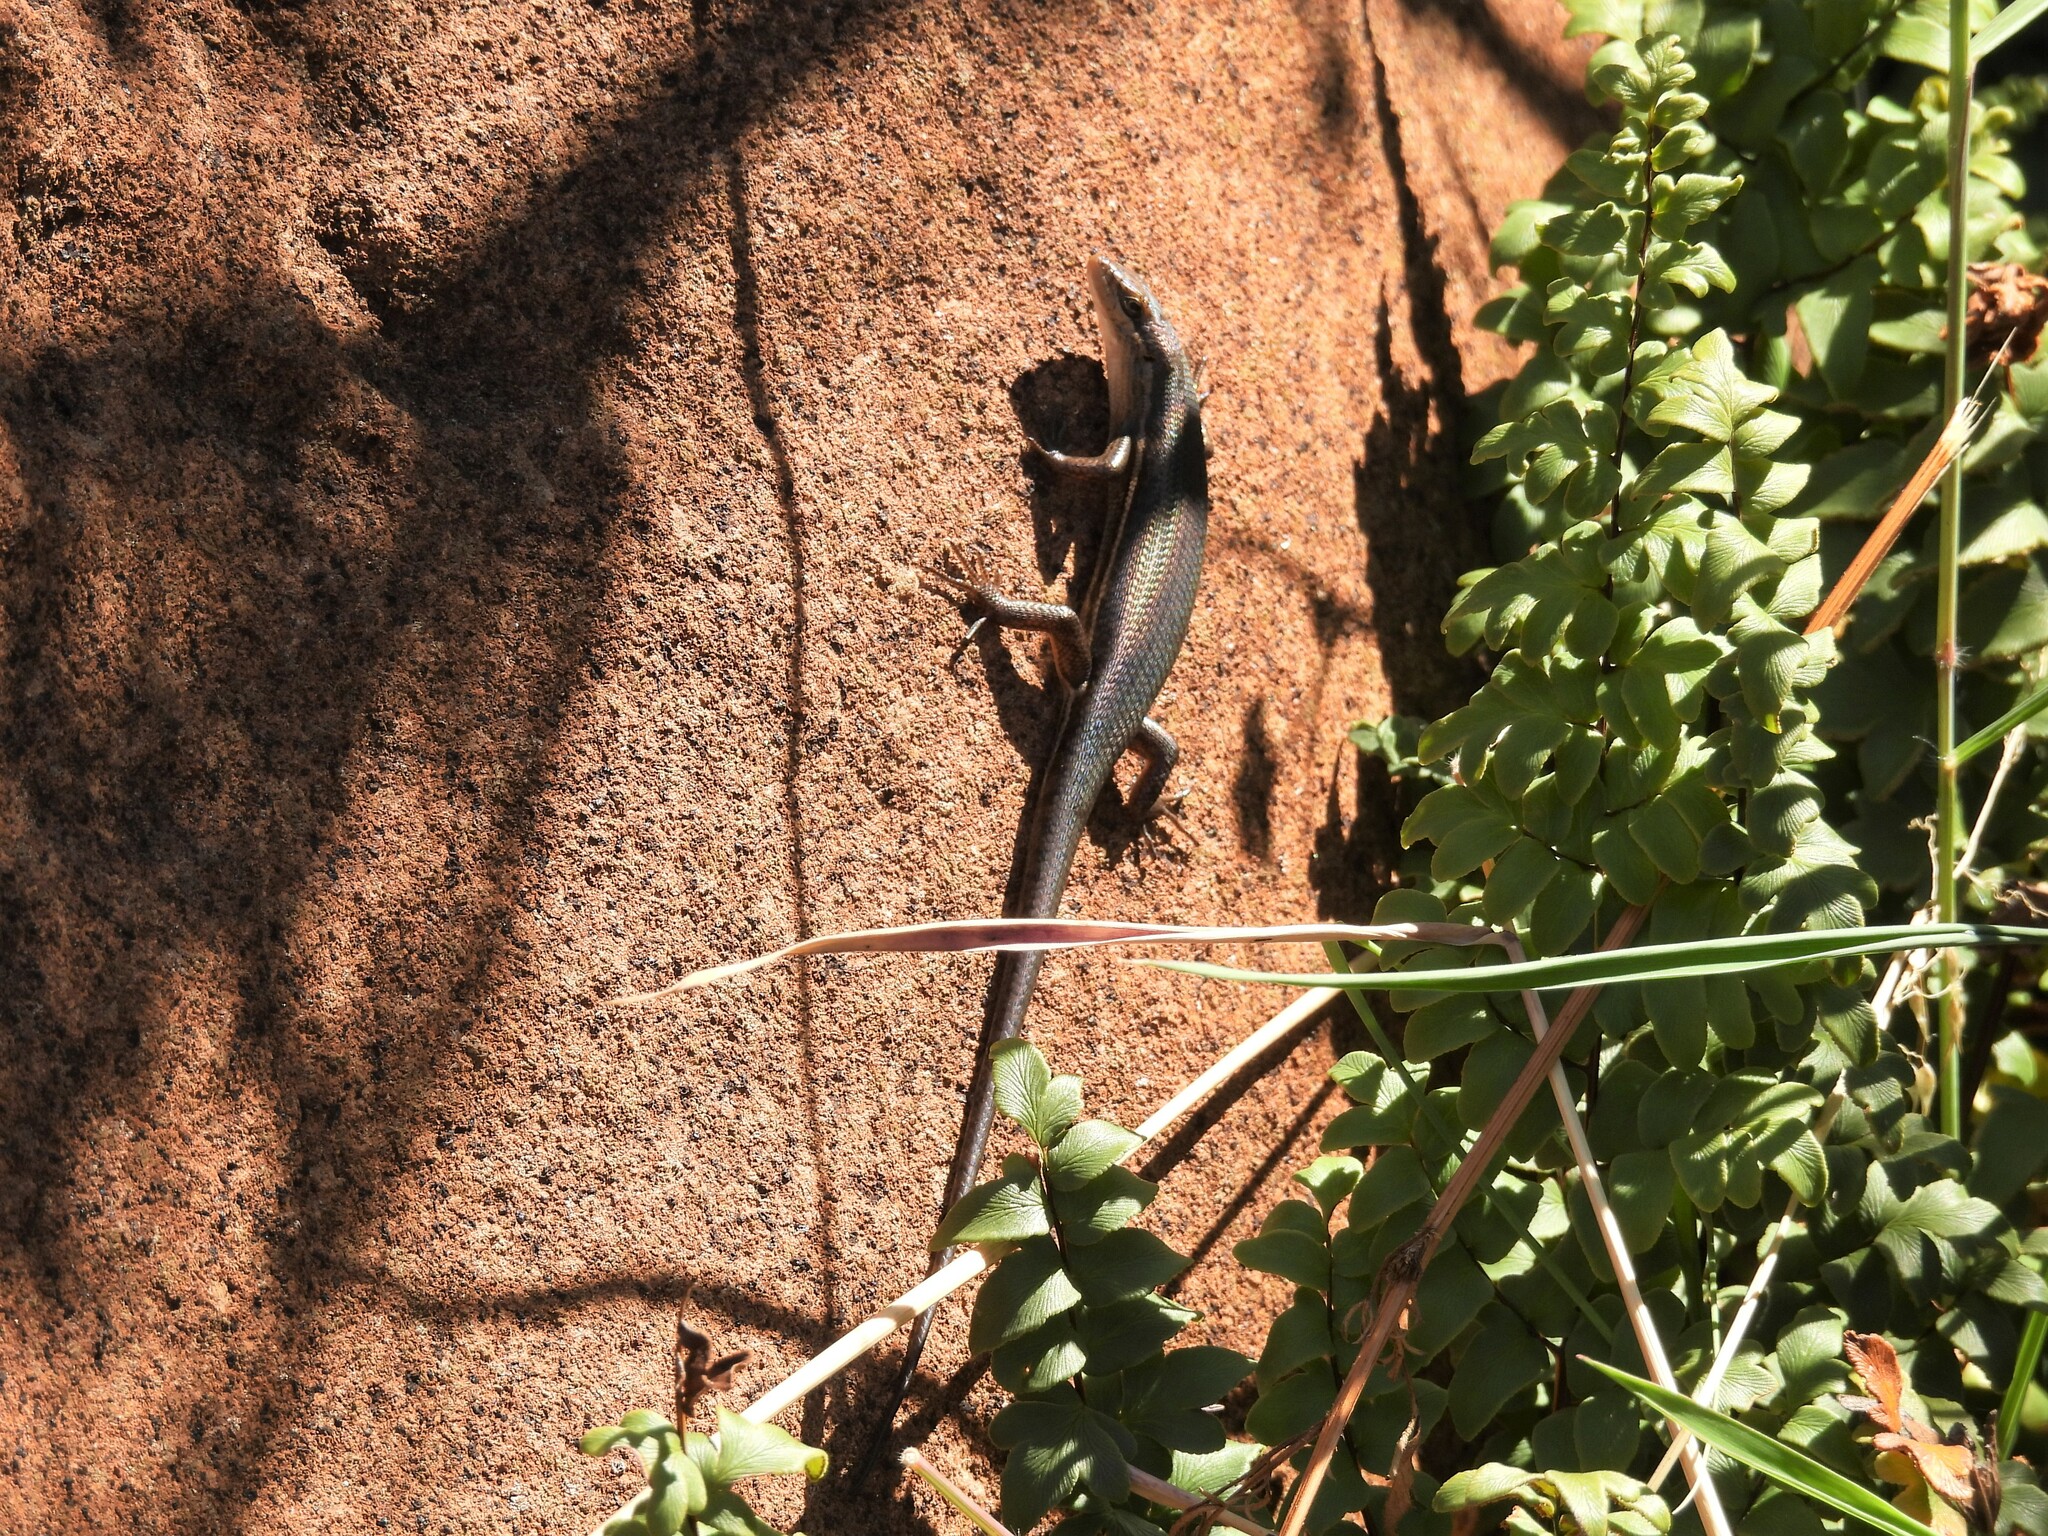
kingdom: Animalia
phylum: Chordata
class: Squamata
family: Scincidae
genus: Trachylepis
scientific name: Trachylepis varia
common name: Eastern variable skink
